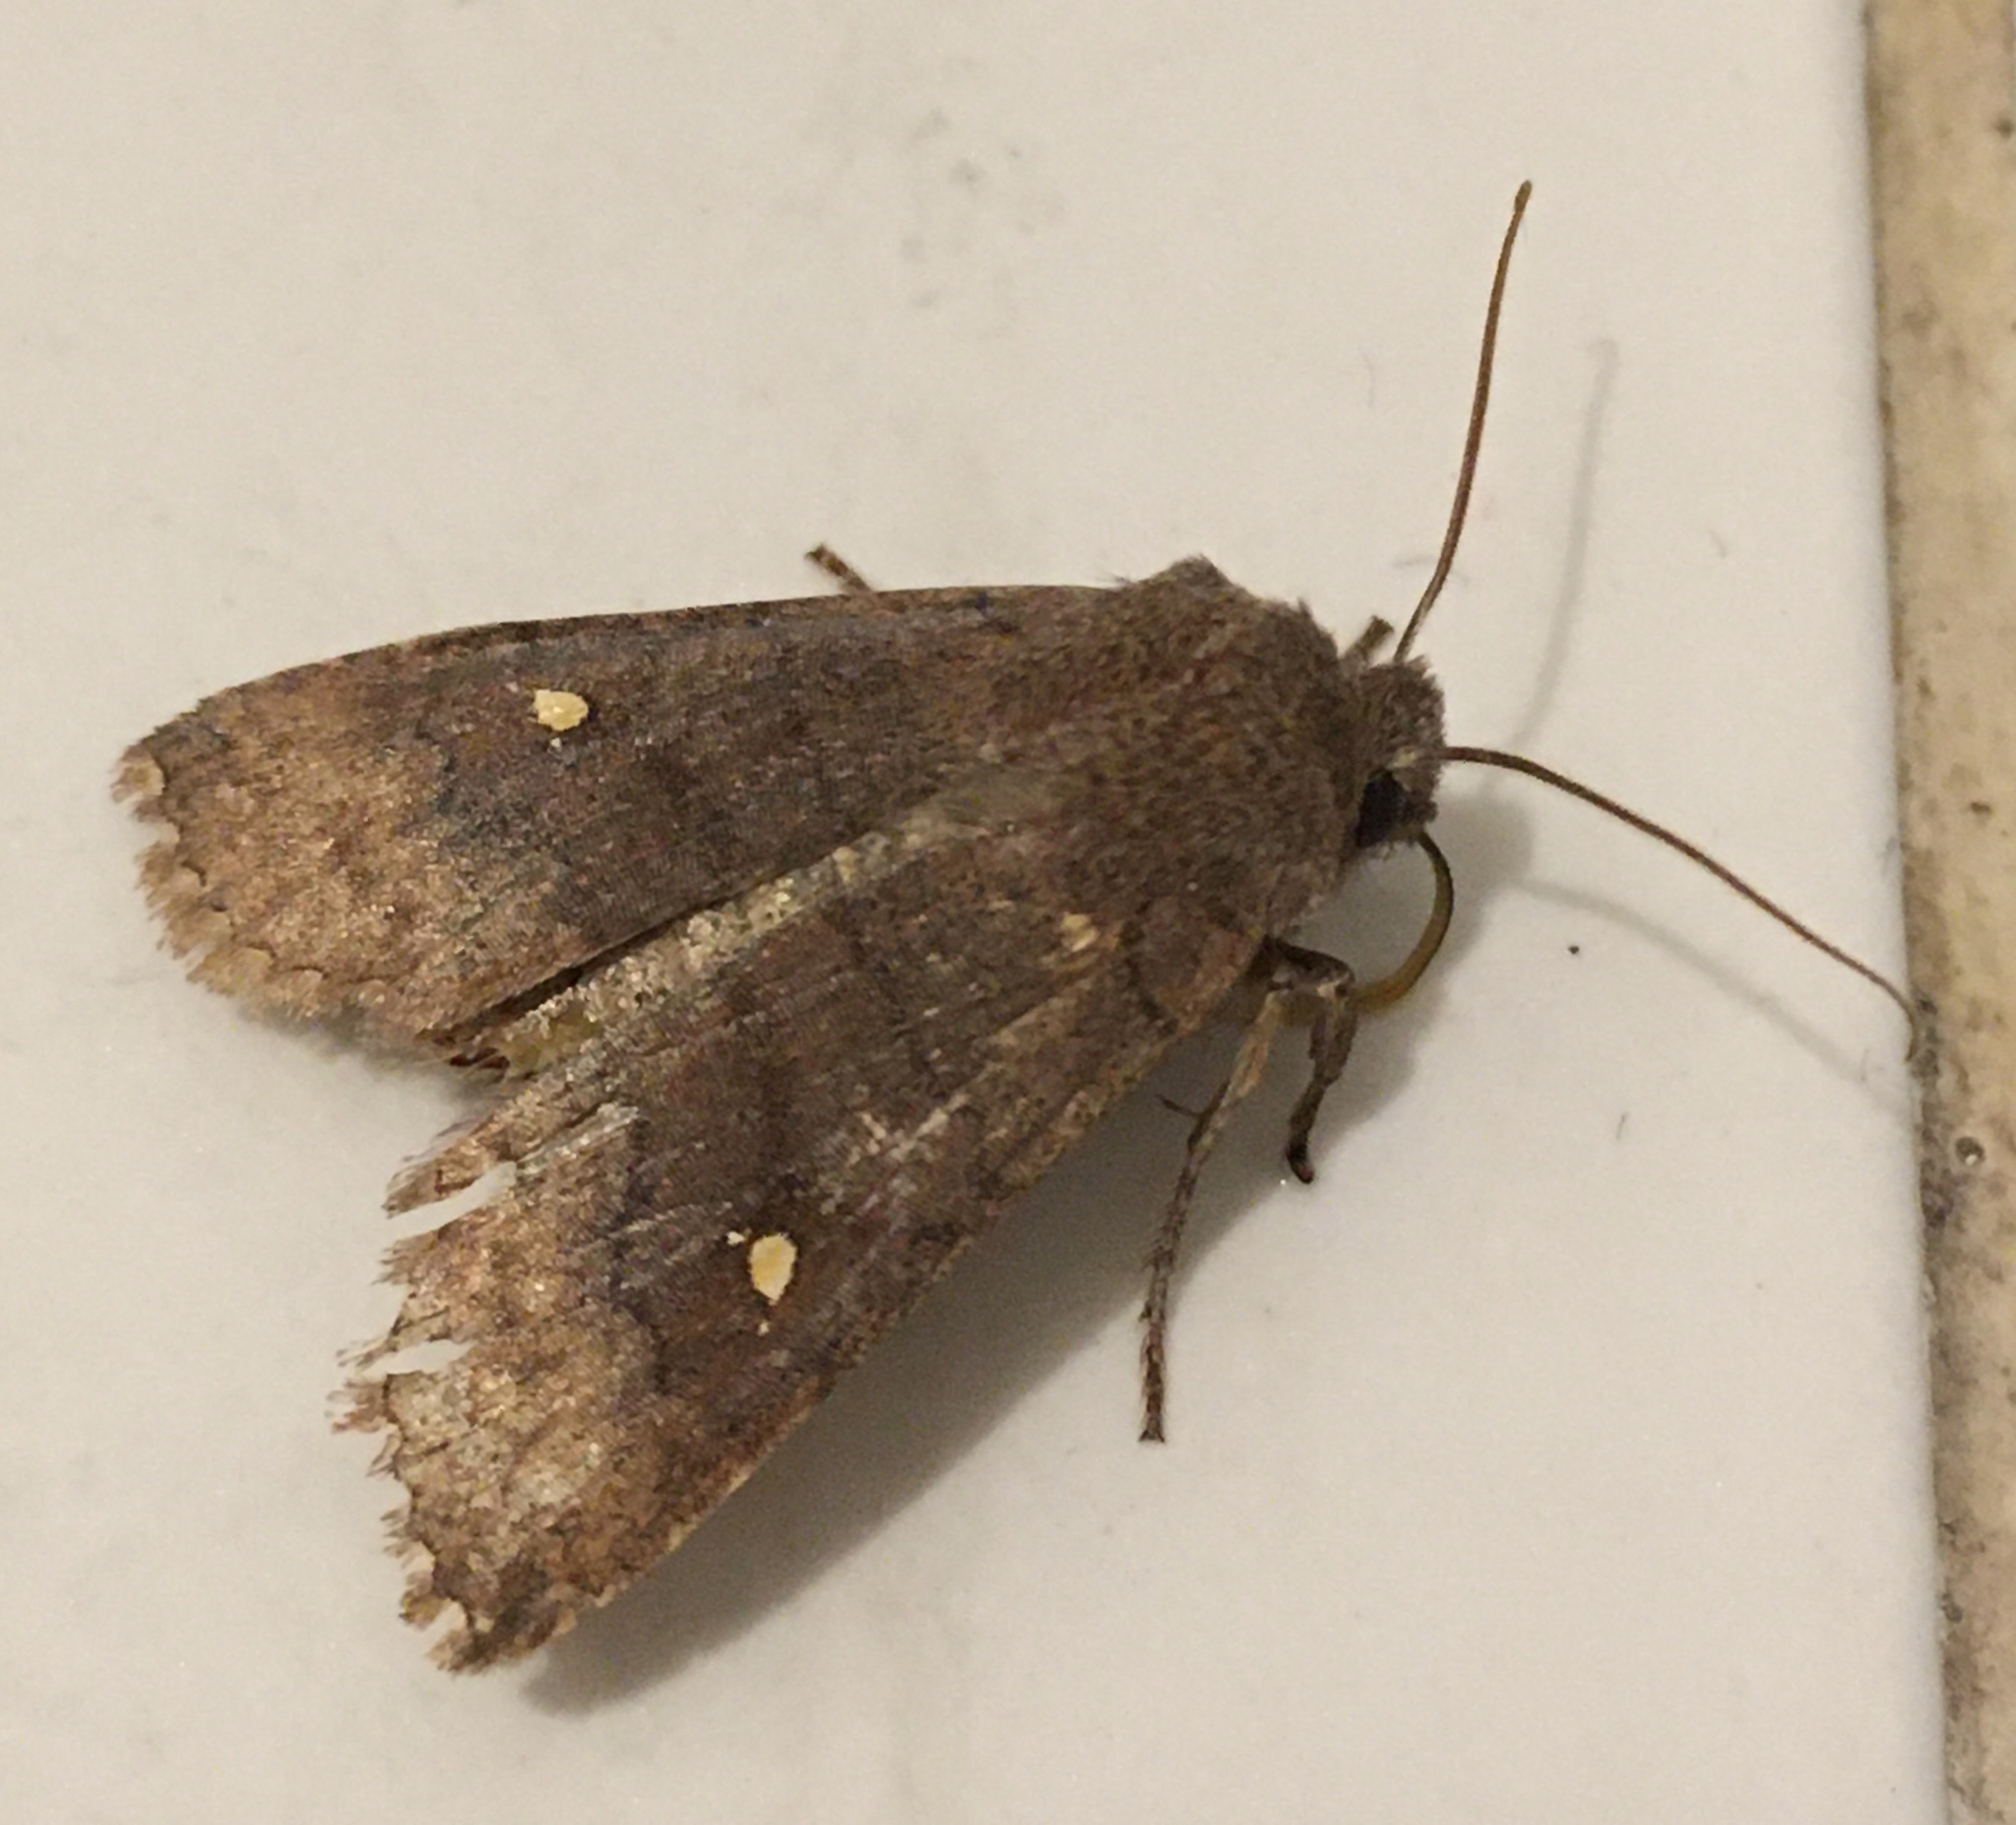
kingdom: Animalia
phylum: Arthropoda
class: Insecta
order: Lepidoptera
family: Noctuidae
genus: Eupsilia
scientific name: Eupsilia transversa
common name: Satellite
